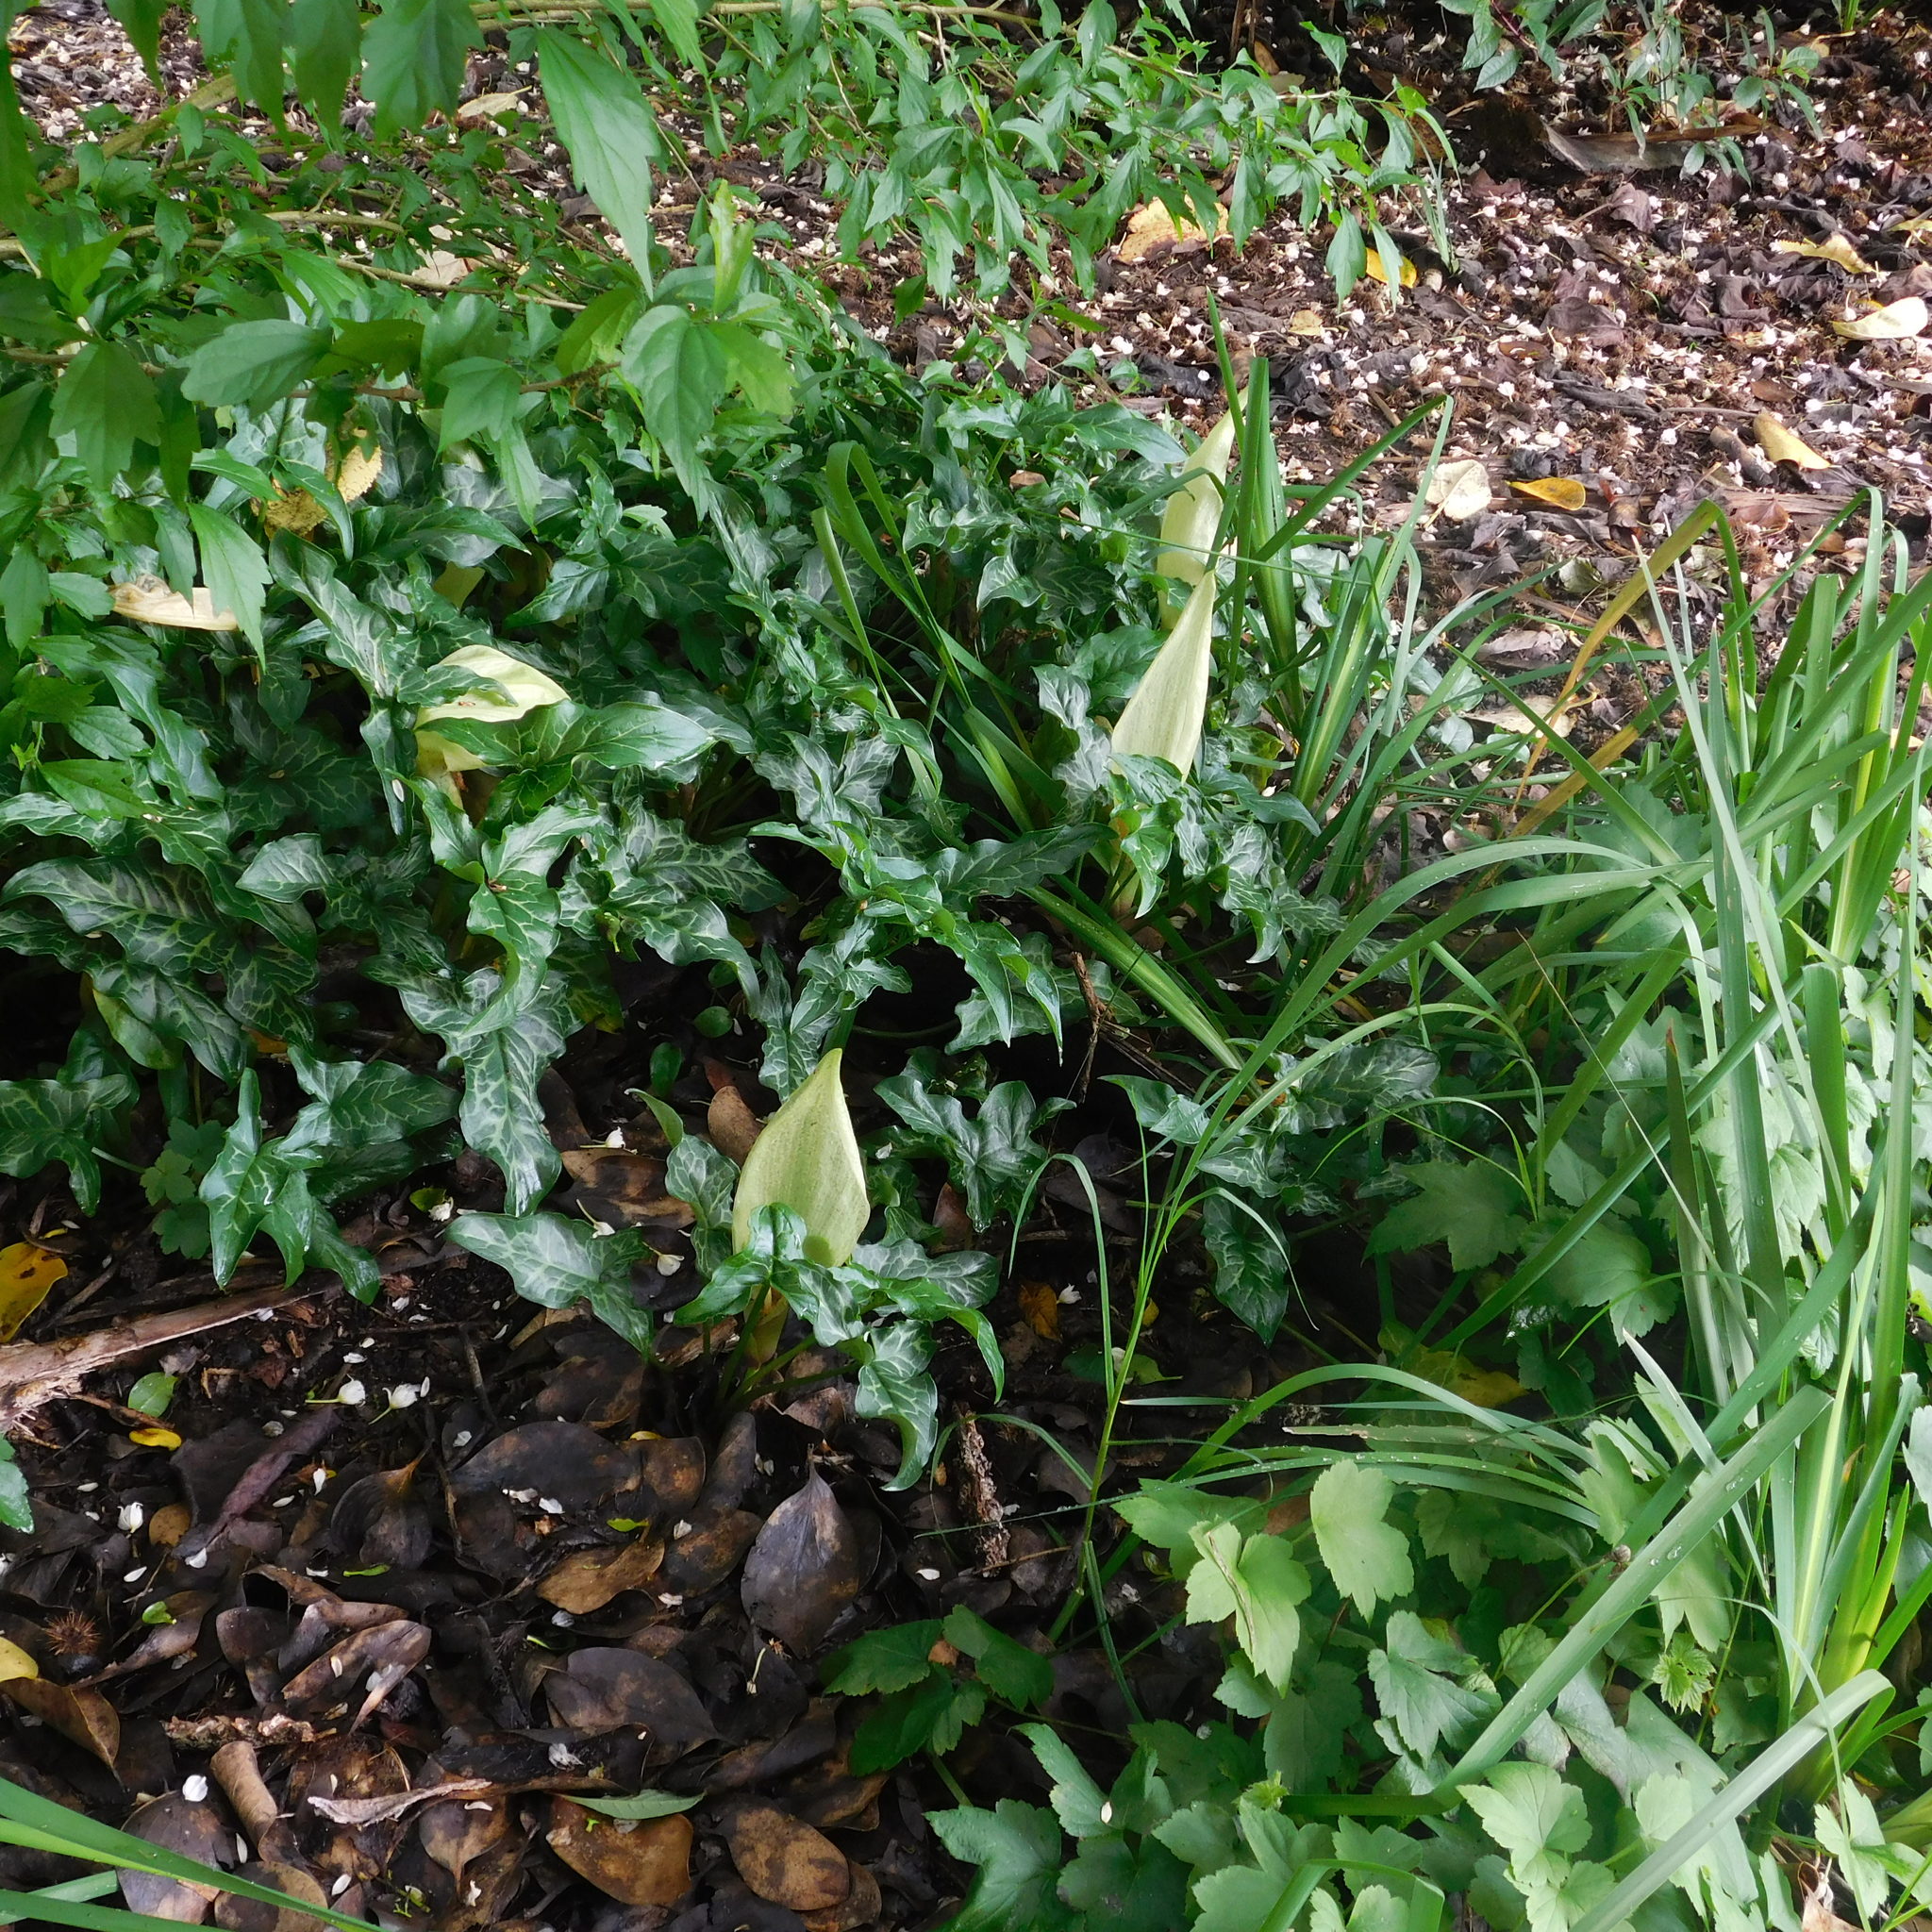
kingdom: Plantae
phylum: Tracheophyta
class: Liliopsida
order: Alismatales
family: Araceae
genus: Arum
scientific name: Arum italicum
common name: Italian lords-and-ladies
